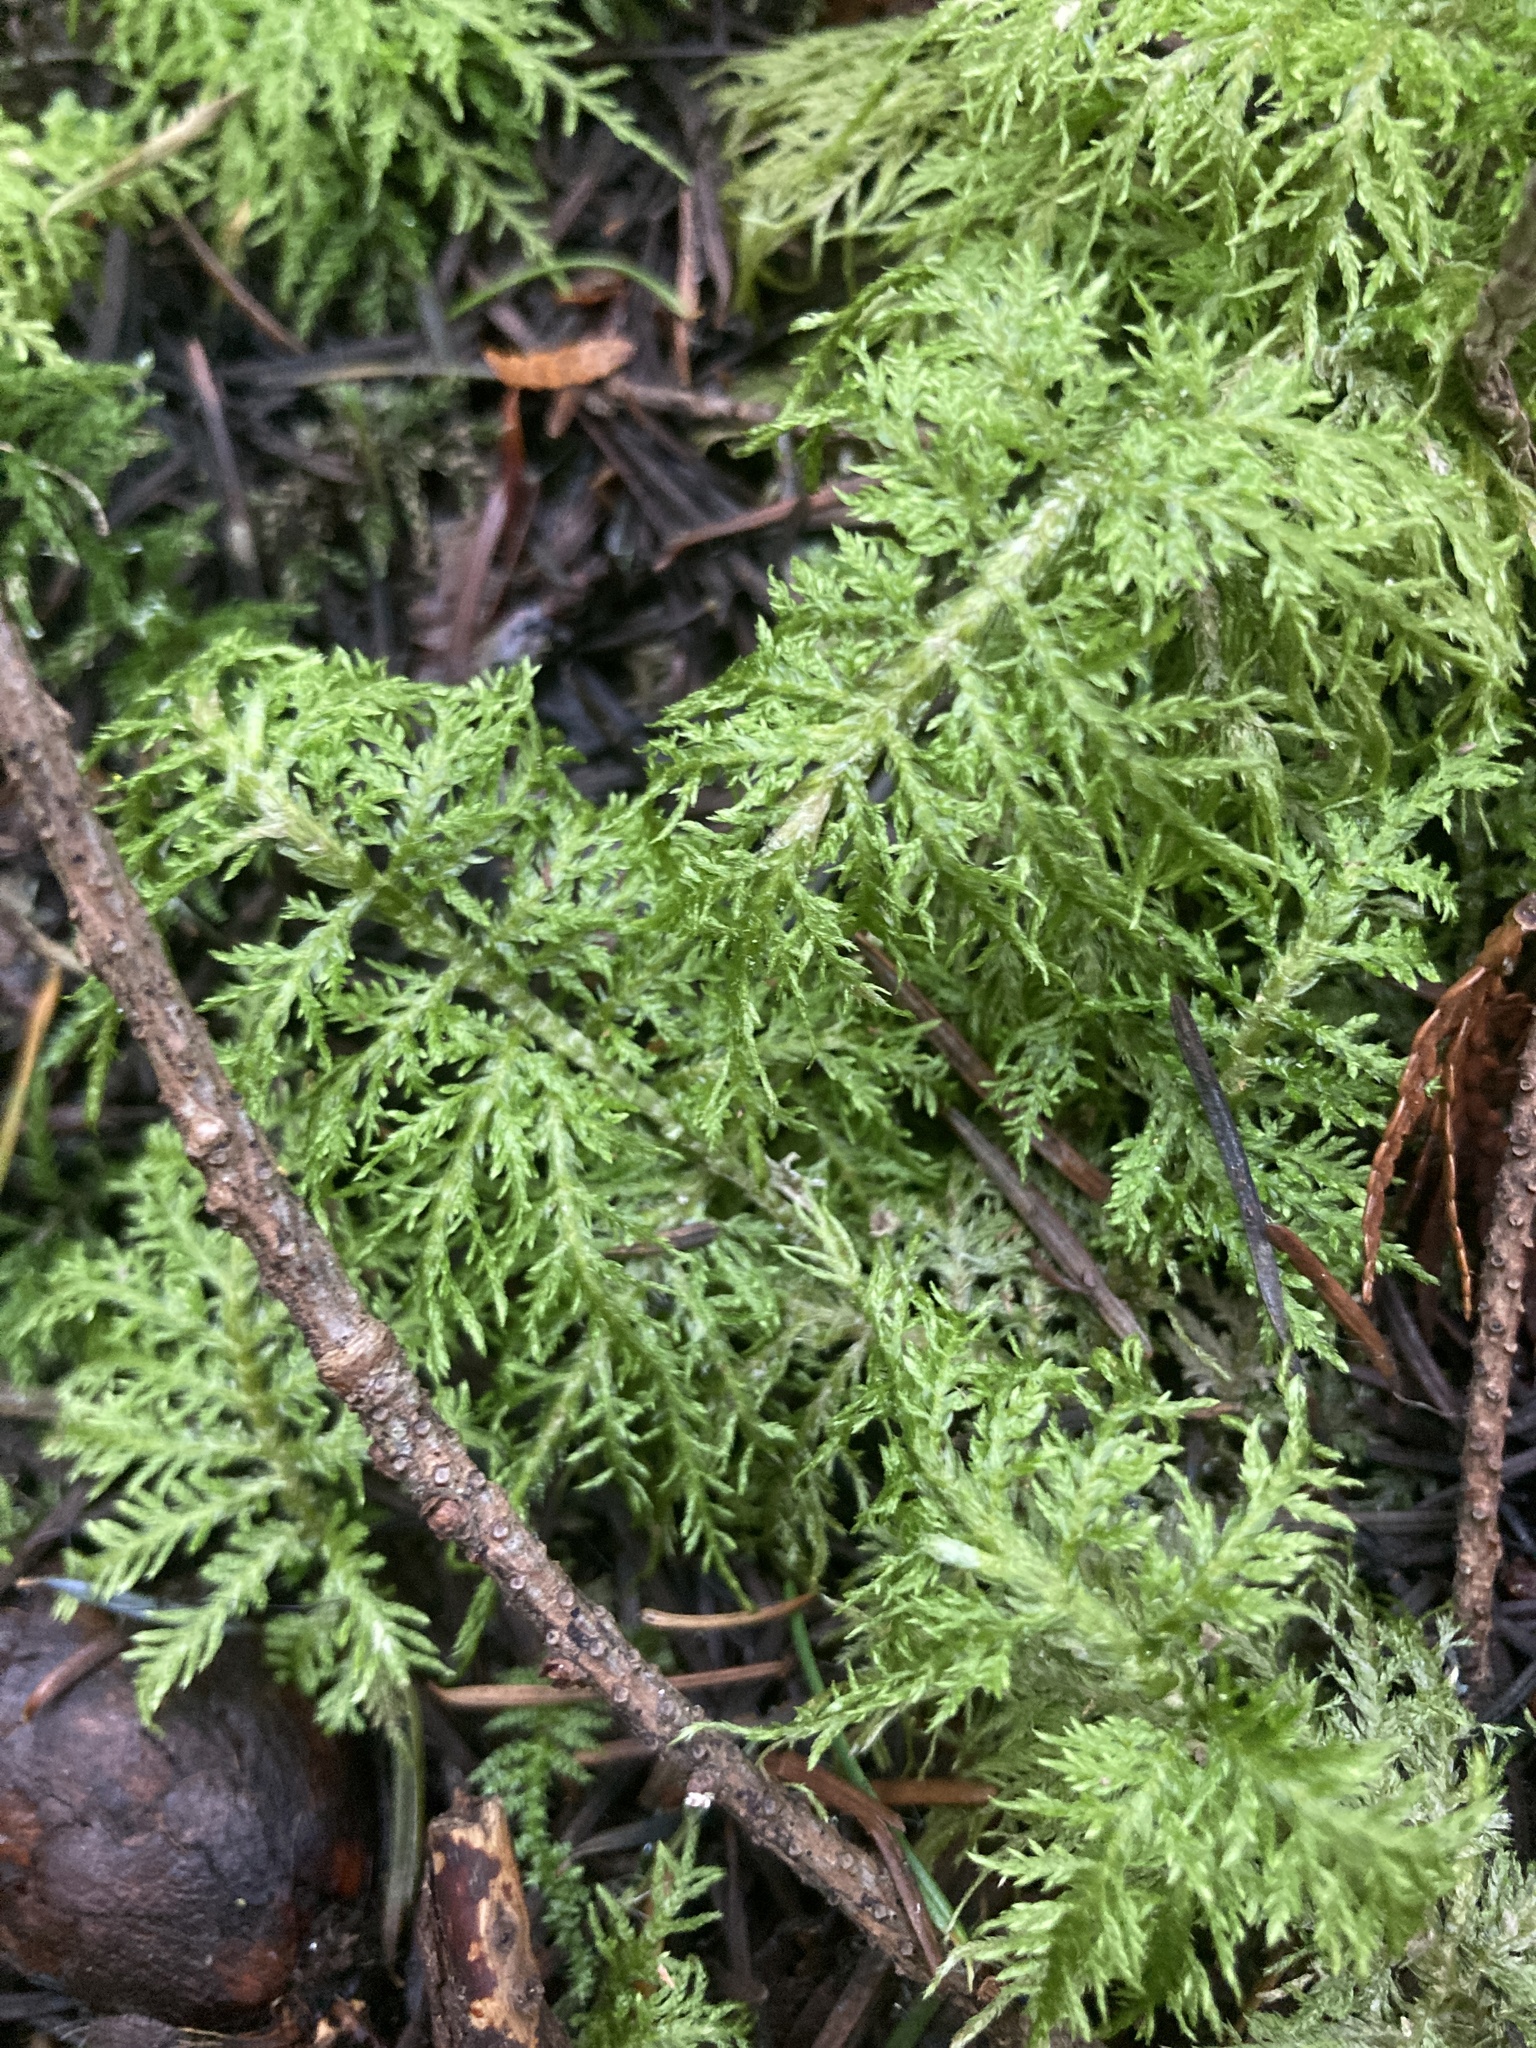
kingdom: Plantae
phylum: Bryophyta
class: Bryopsida
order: Hypnales
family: Hylocomiaceae
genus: Hylocomium
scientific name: Hylocomium splendens
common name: Stairstep moss
